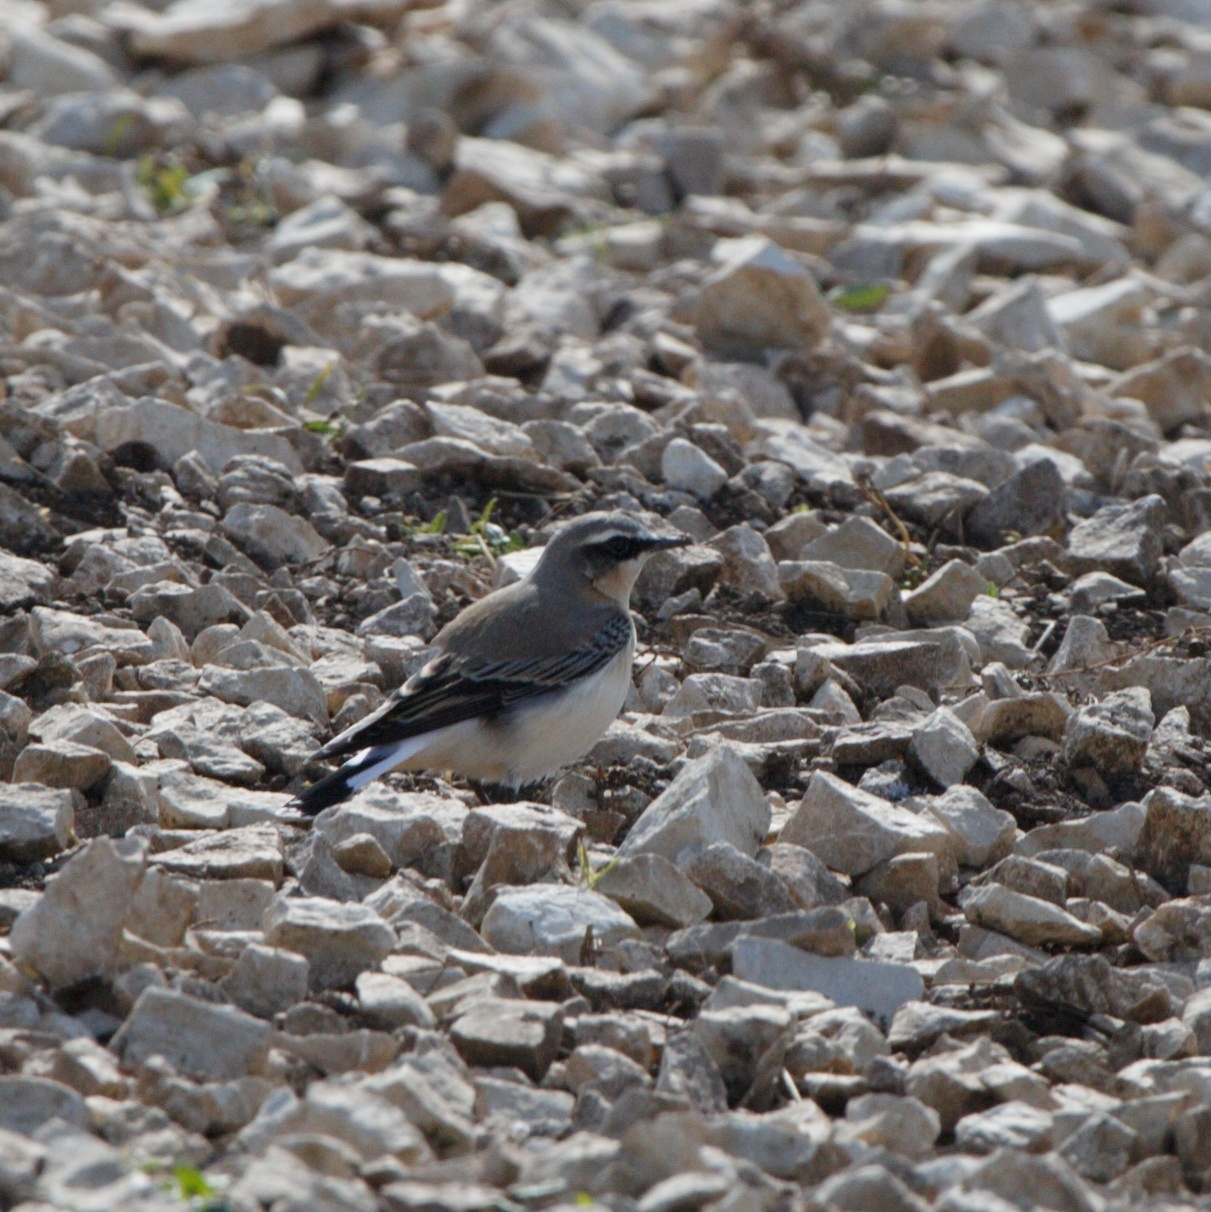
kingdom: Animalia
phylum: Chordata
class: Aves
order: Passeriformes
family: Muscicapidae
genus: Oenanthe
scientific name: Oenanthe oenanthe
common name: Northern wheatear
